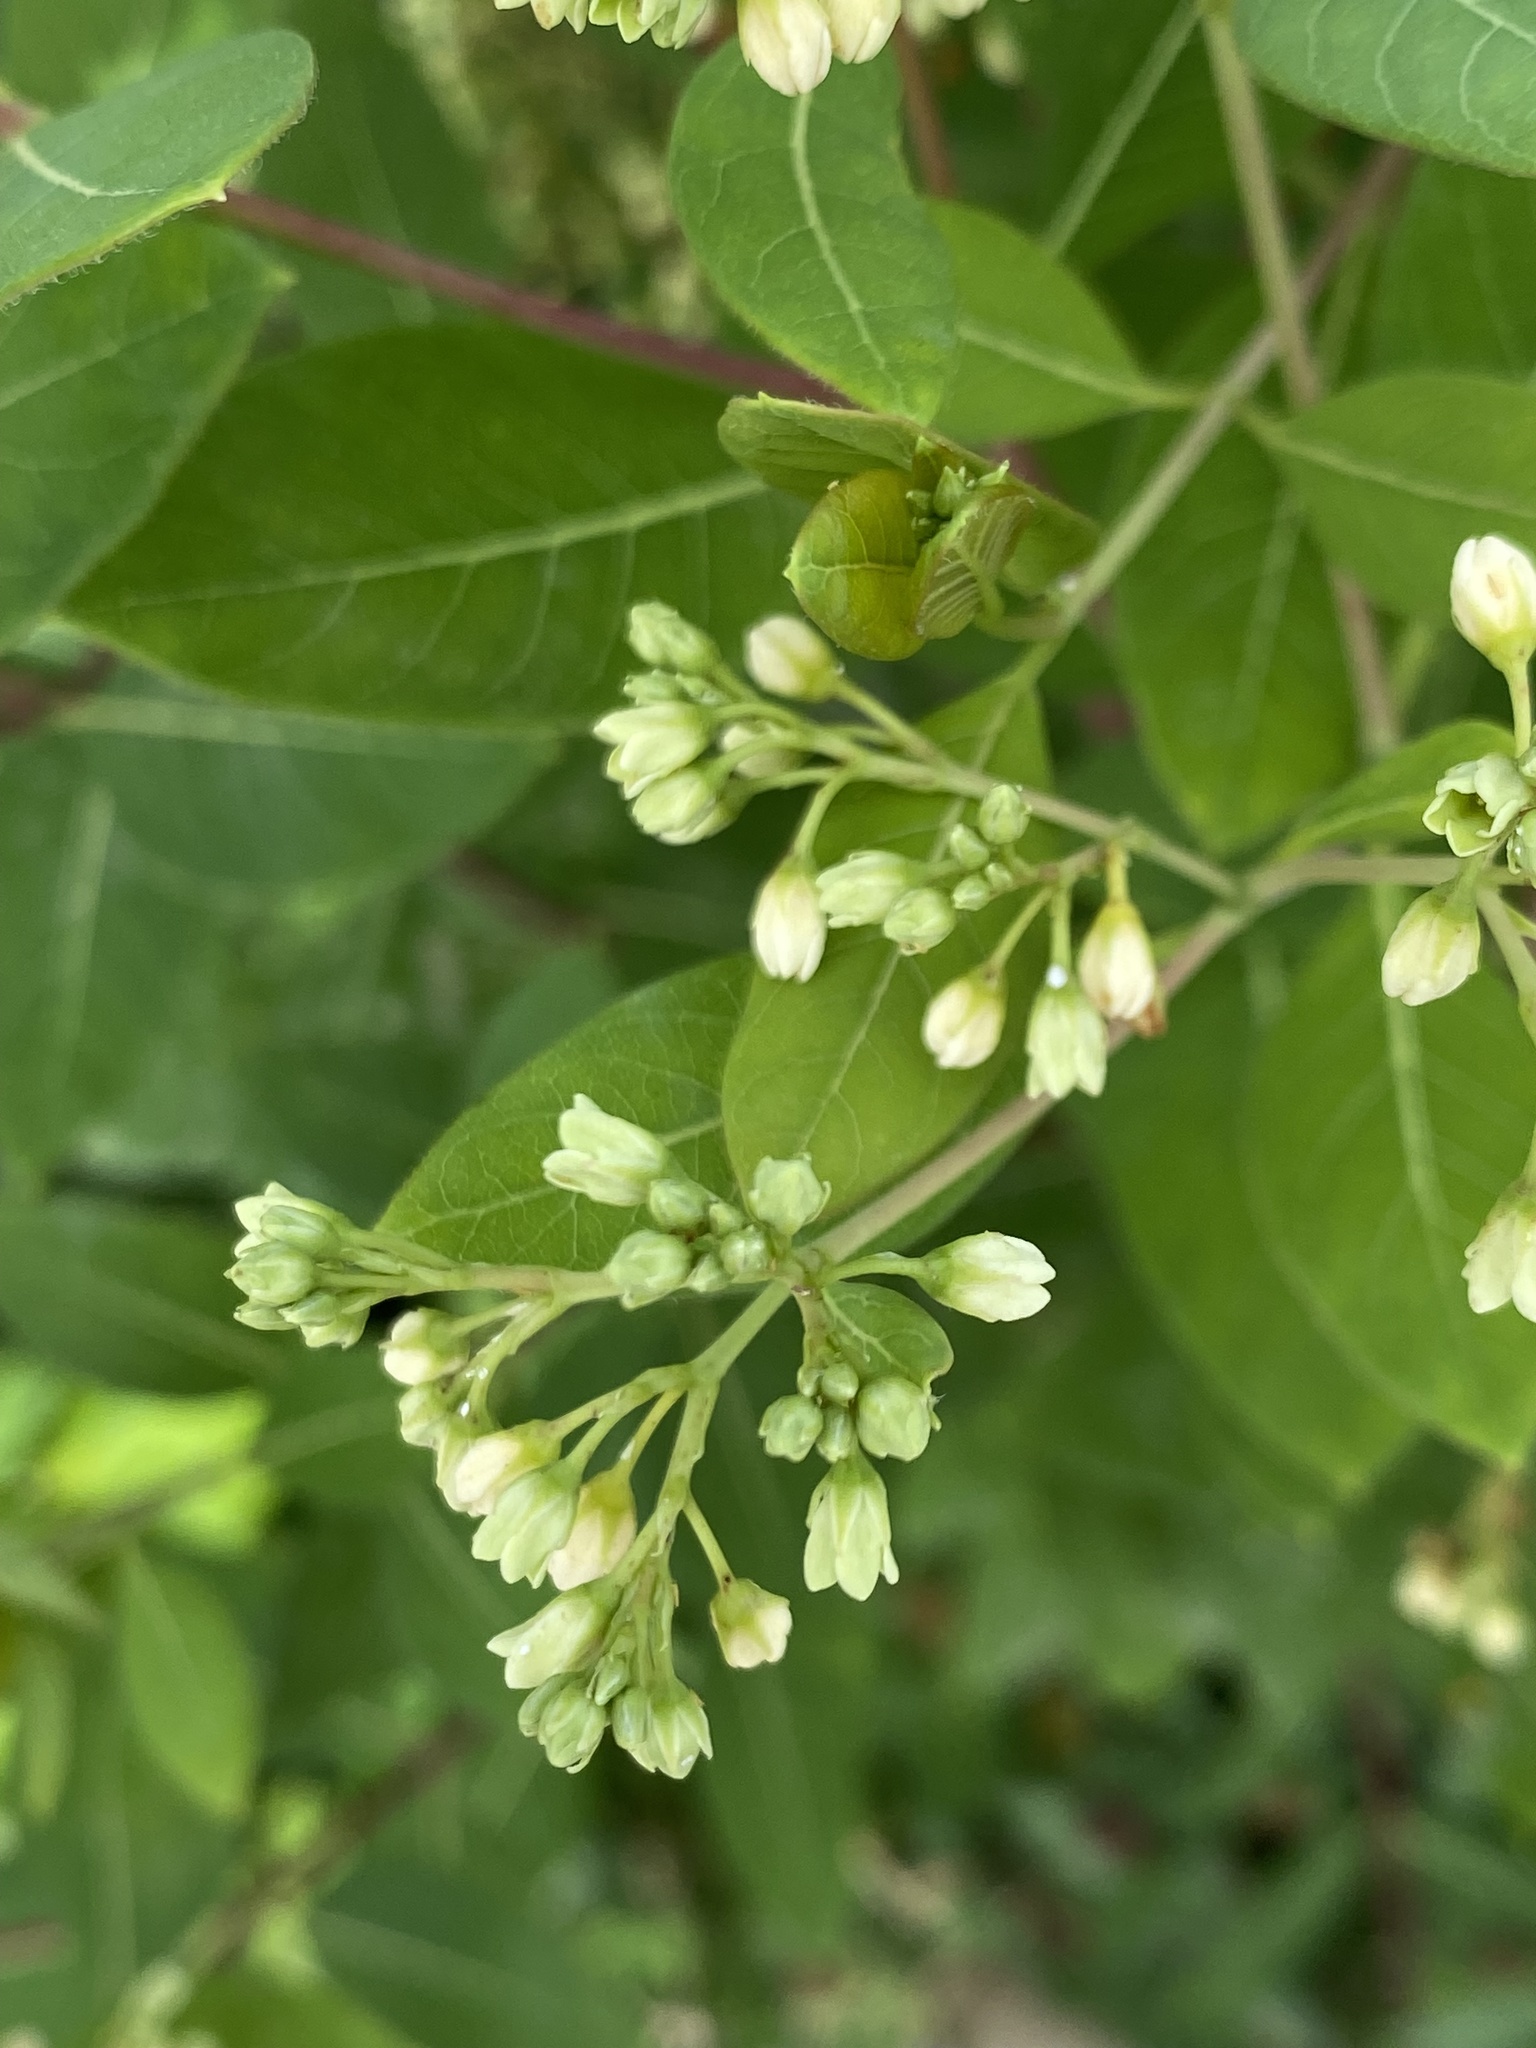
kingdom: Plantae
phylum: Tracheophyta
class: Magnoliopsida
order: Gentianales
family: Apocynaceae
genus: Apocynum
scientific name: Apocynum cannabinum
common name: Hemp dogbane
